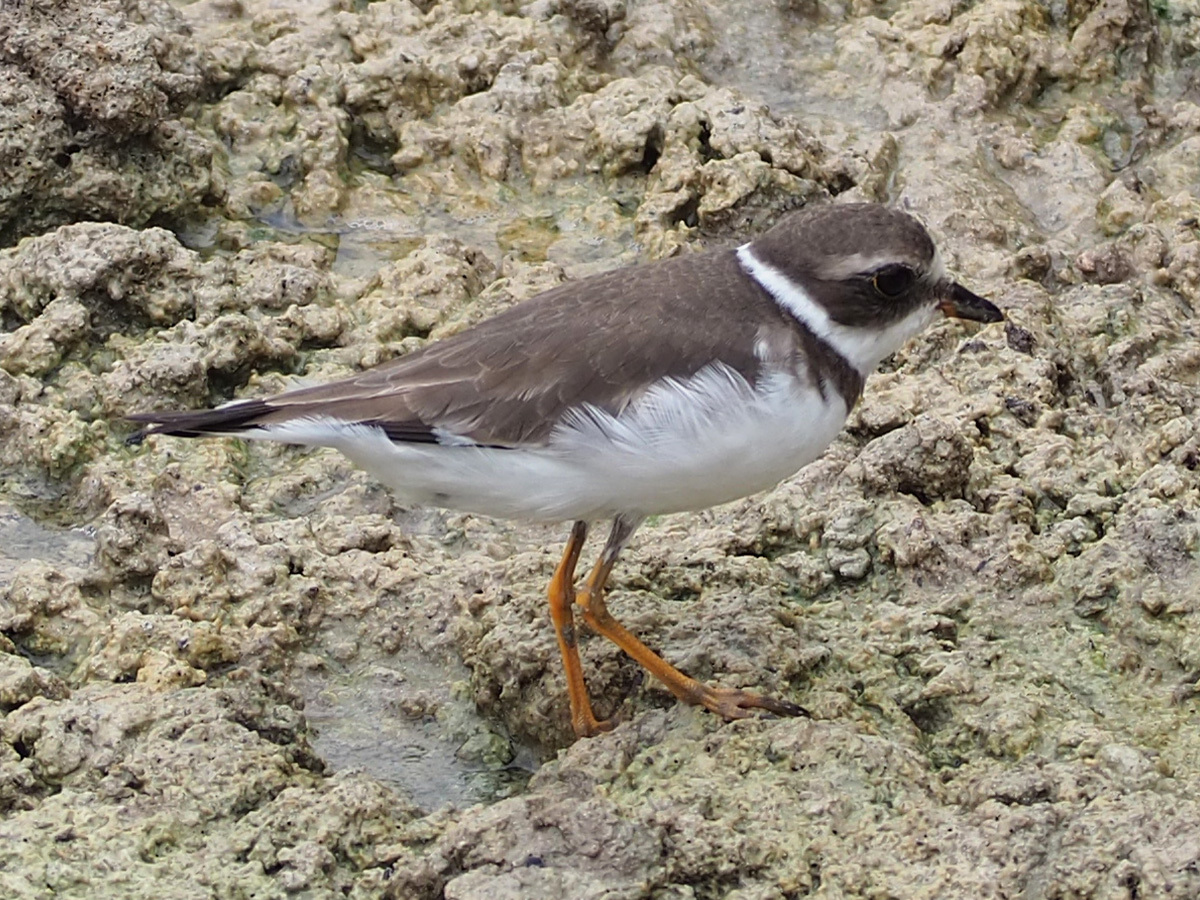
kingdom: Animalia
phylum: Chordata
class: Aves
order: Charadriiformes
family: Charadriidae
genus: Charadrius
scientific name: Charadrius semipalmatus
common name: Semipalmated plover
